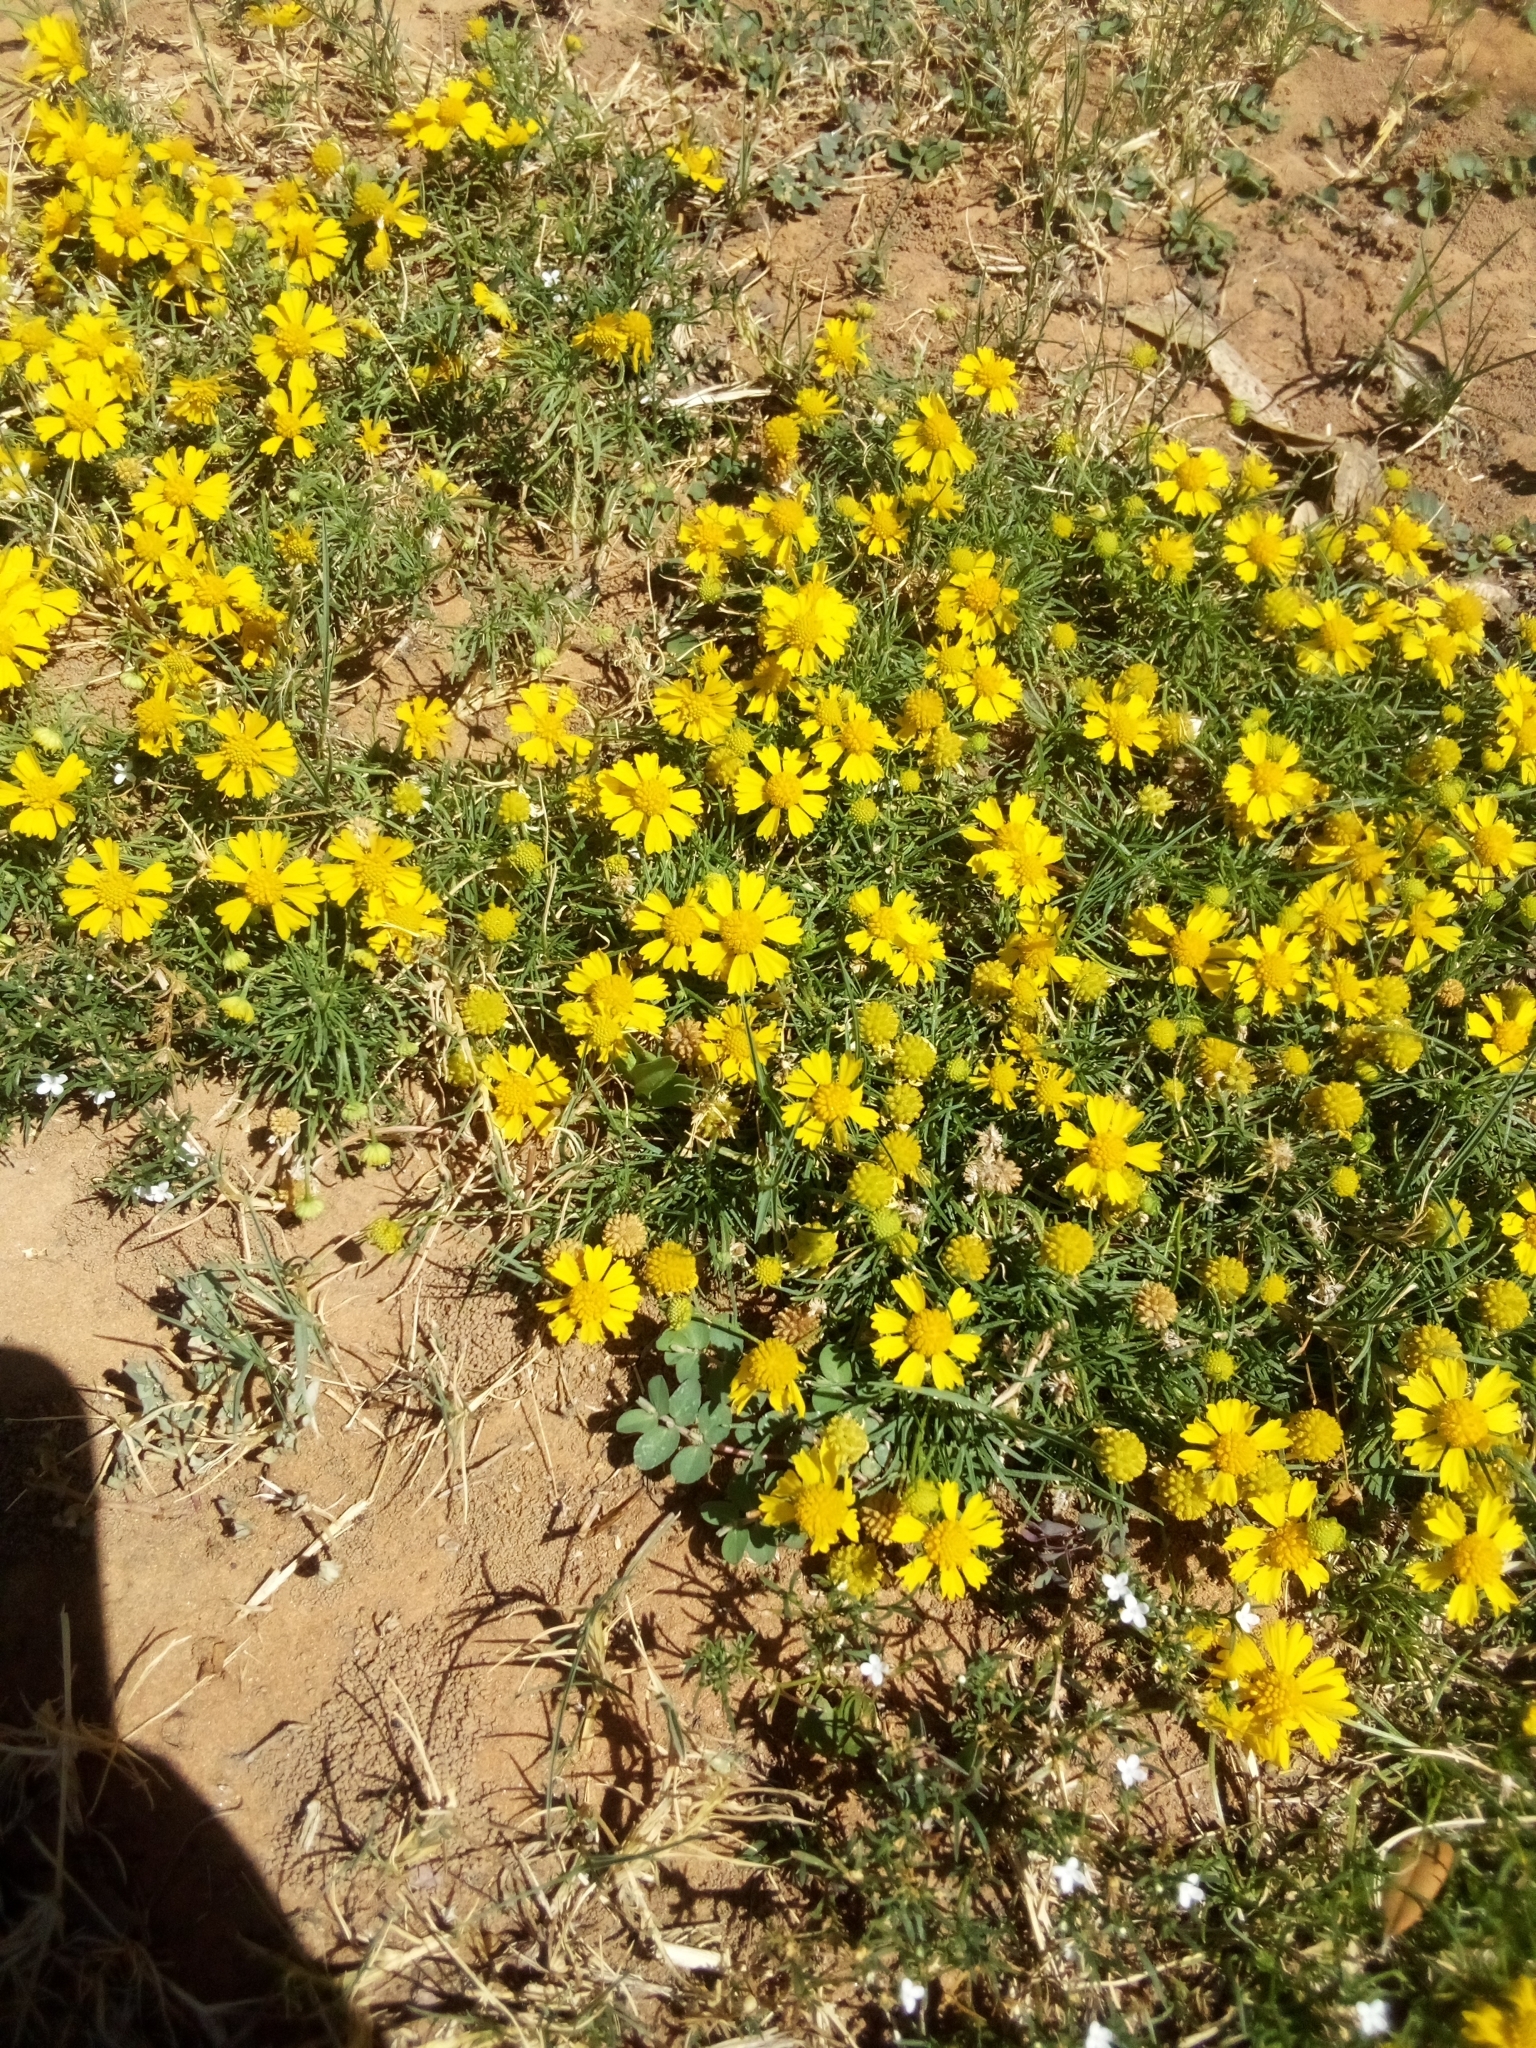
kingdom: Plantae
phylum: Tracheophyta
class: Magnoliopsida
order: Asterales
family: Asteraceae
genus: Helenium
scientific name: Helenium amarum
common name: Bitter sneezeweed
